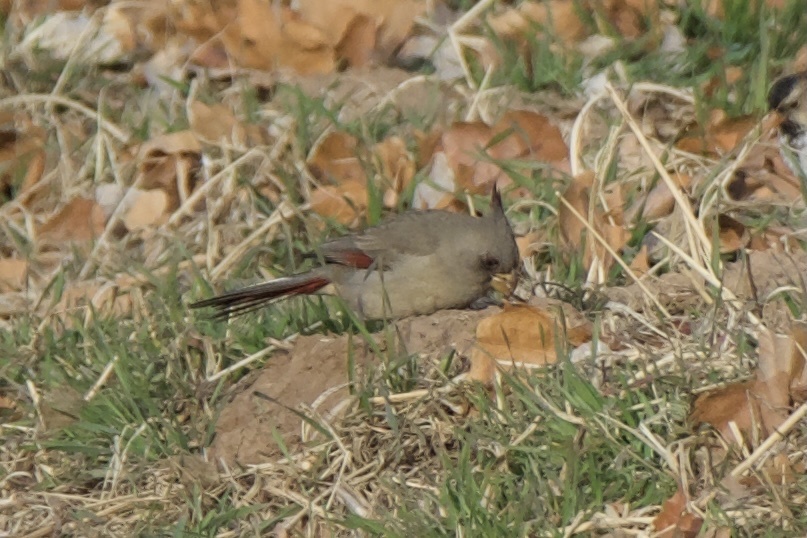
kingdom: Animalia
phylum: Chordata
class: Aves
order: Passeriformes
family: Cardinalidae
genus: Cardinalis
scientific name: Cardinalis sinuatus
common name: Pyrrhuloxia
